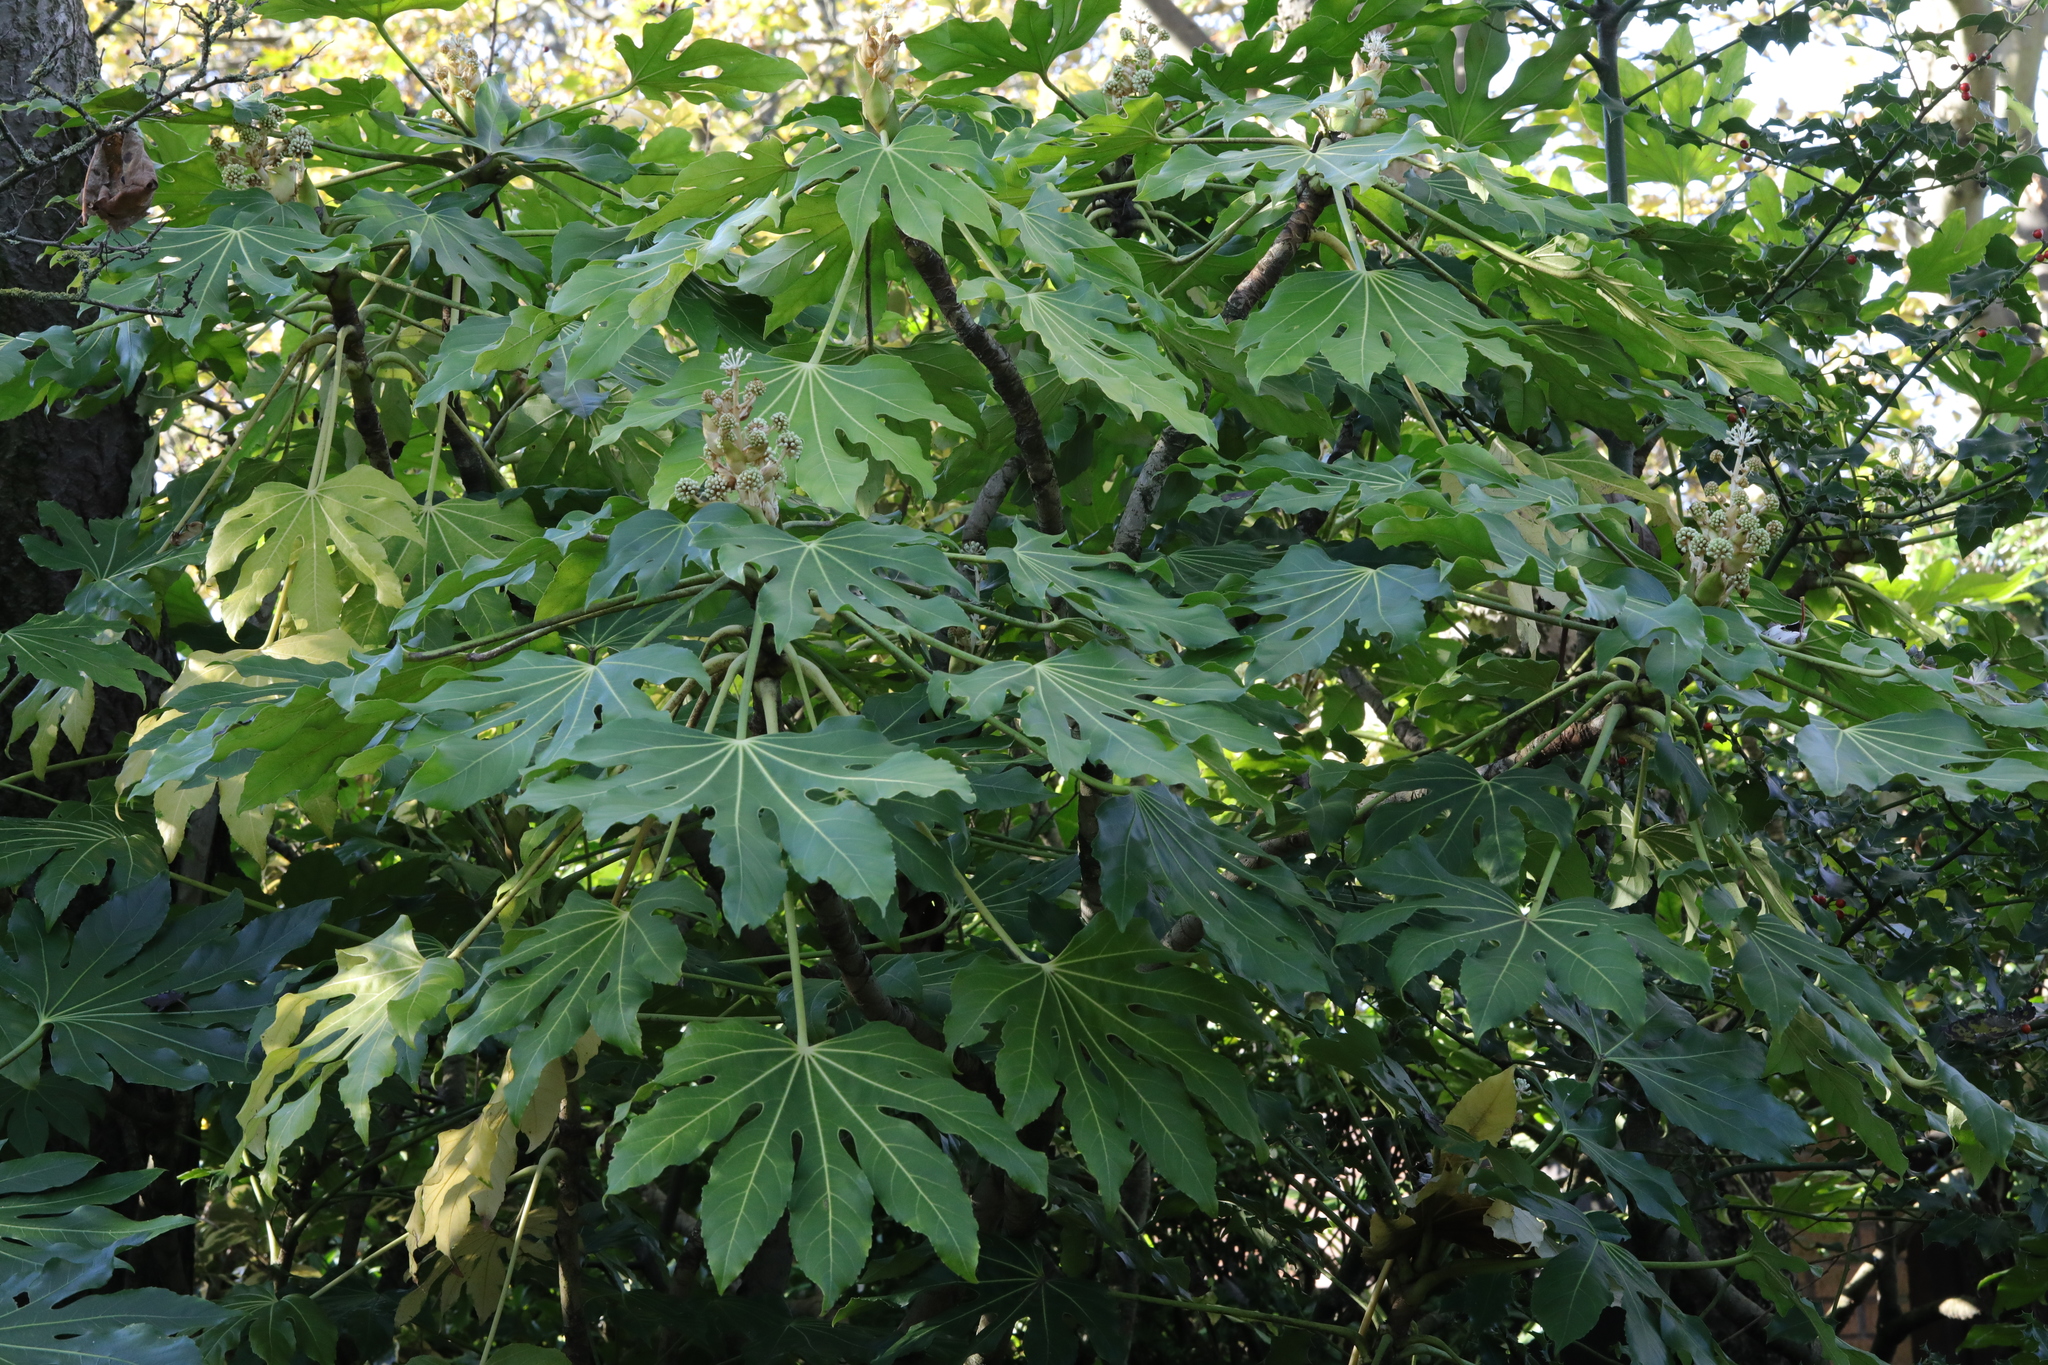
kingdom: Plantae
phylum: Tracheophyta
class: Magnoliopsida
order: Apiales
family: Araliaceae
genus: Fatsia
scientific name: Fatsia japonica
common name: Fatsia
